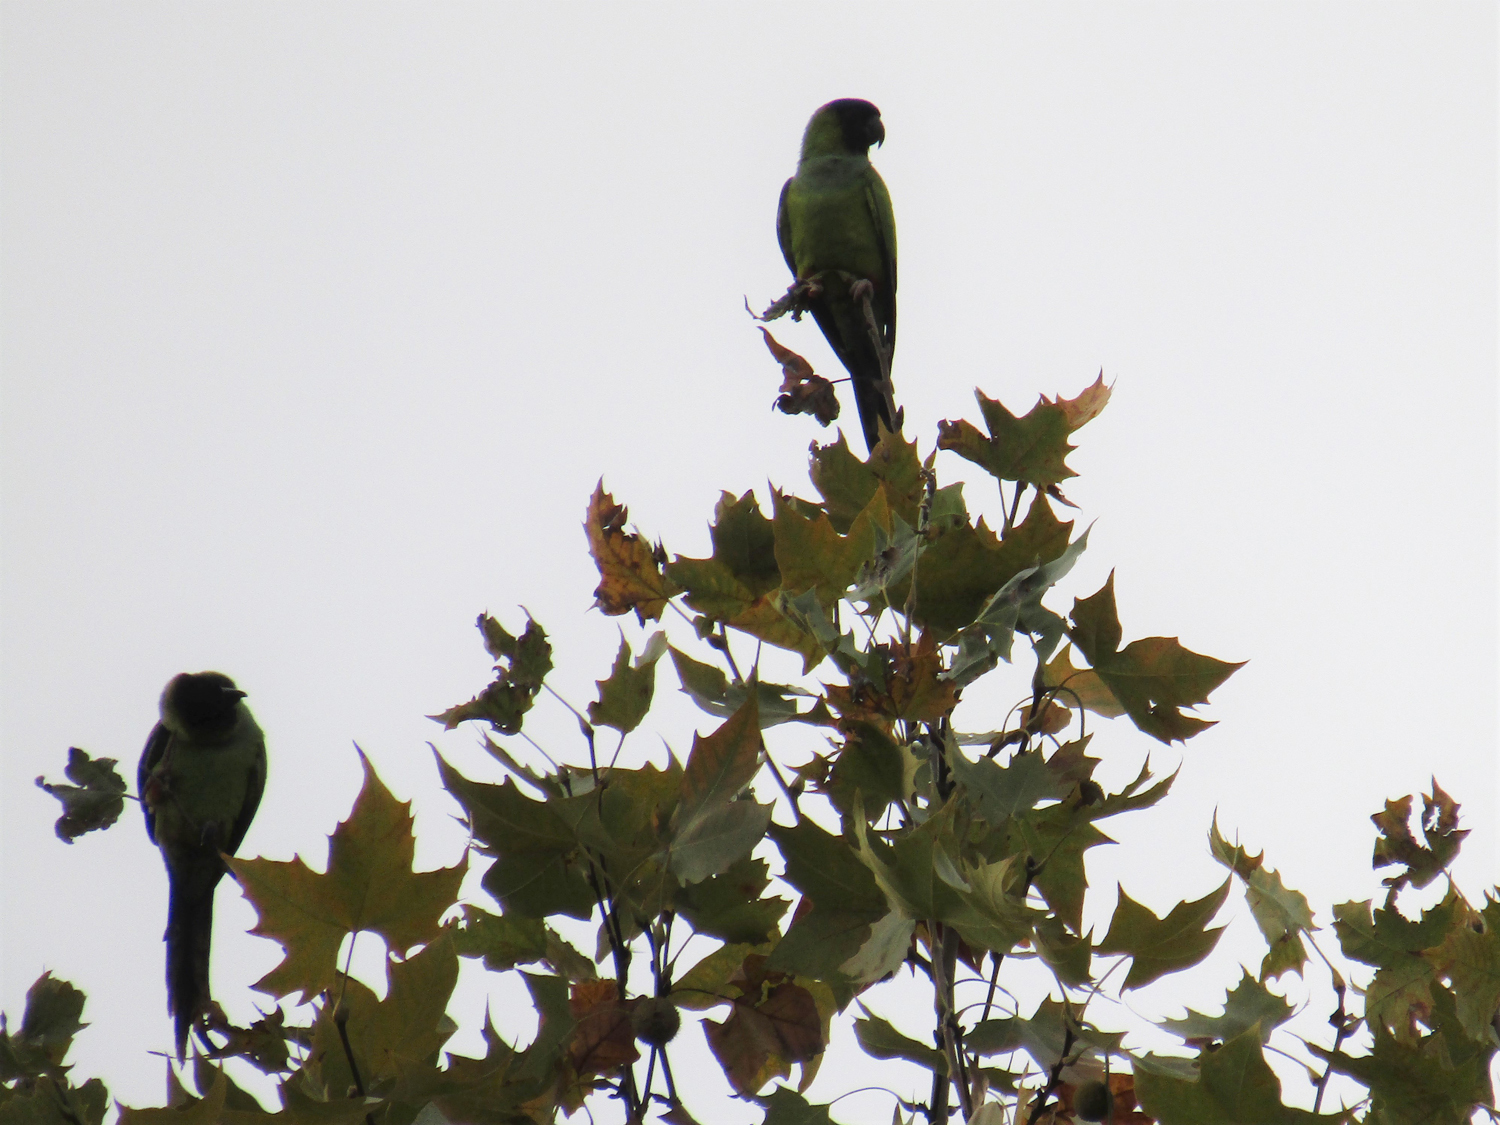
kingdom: Animalia
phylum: Chordata
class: Aves
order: Psittaciformes
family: Psittacidae
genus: Nandayus
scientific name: Nandayus nenday
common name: Nanday parakeet
